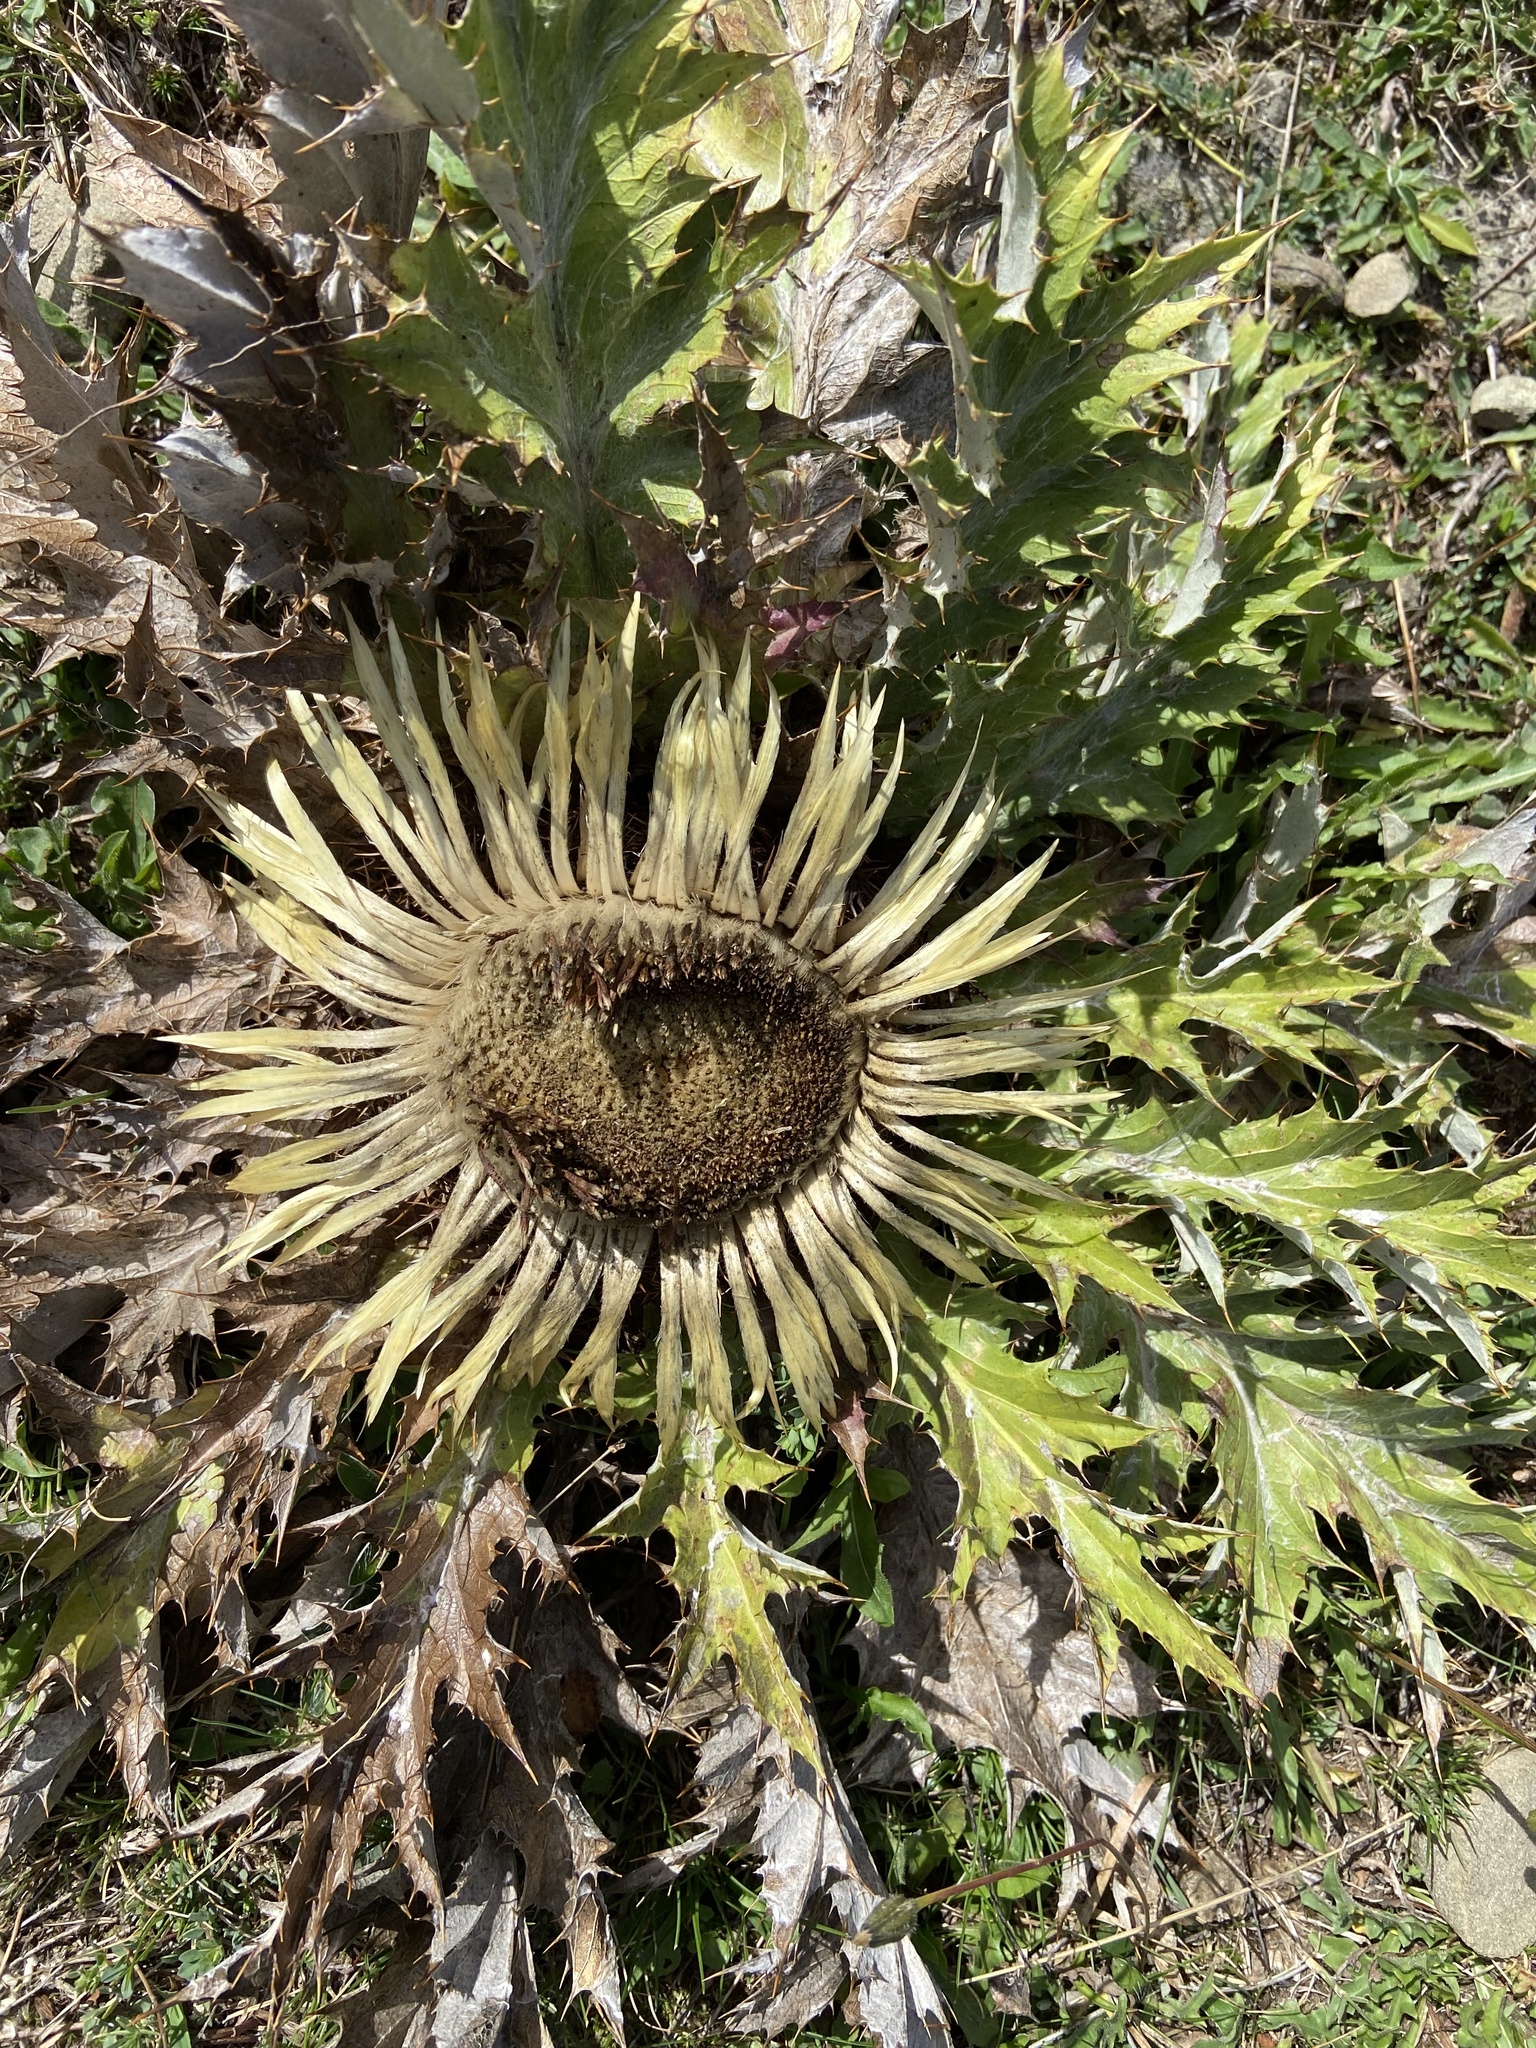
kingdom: Plantae
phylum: Tracheophyta
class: Magnoliopsida
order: Asterales
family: Asteraceae
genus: Carlina
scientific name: Carlina acanthifolia
